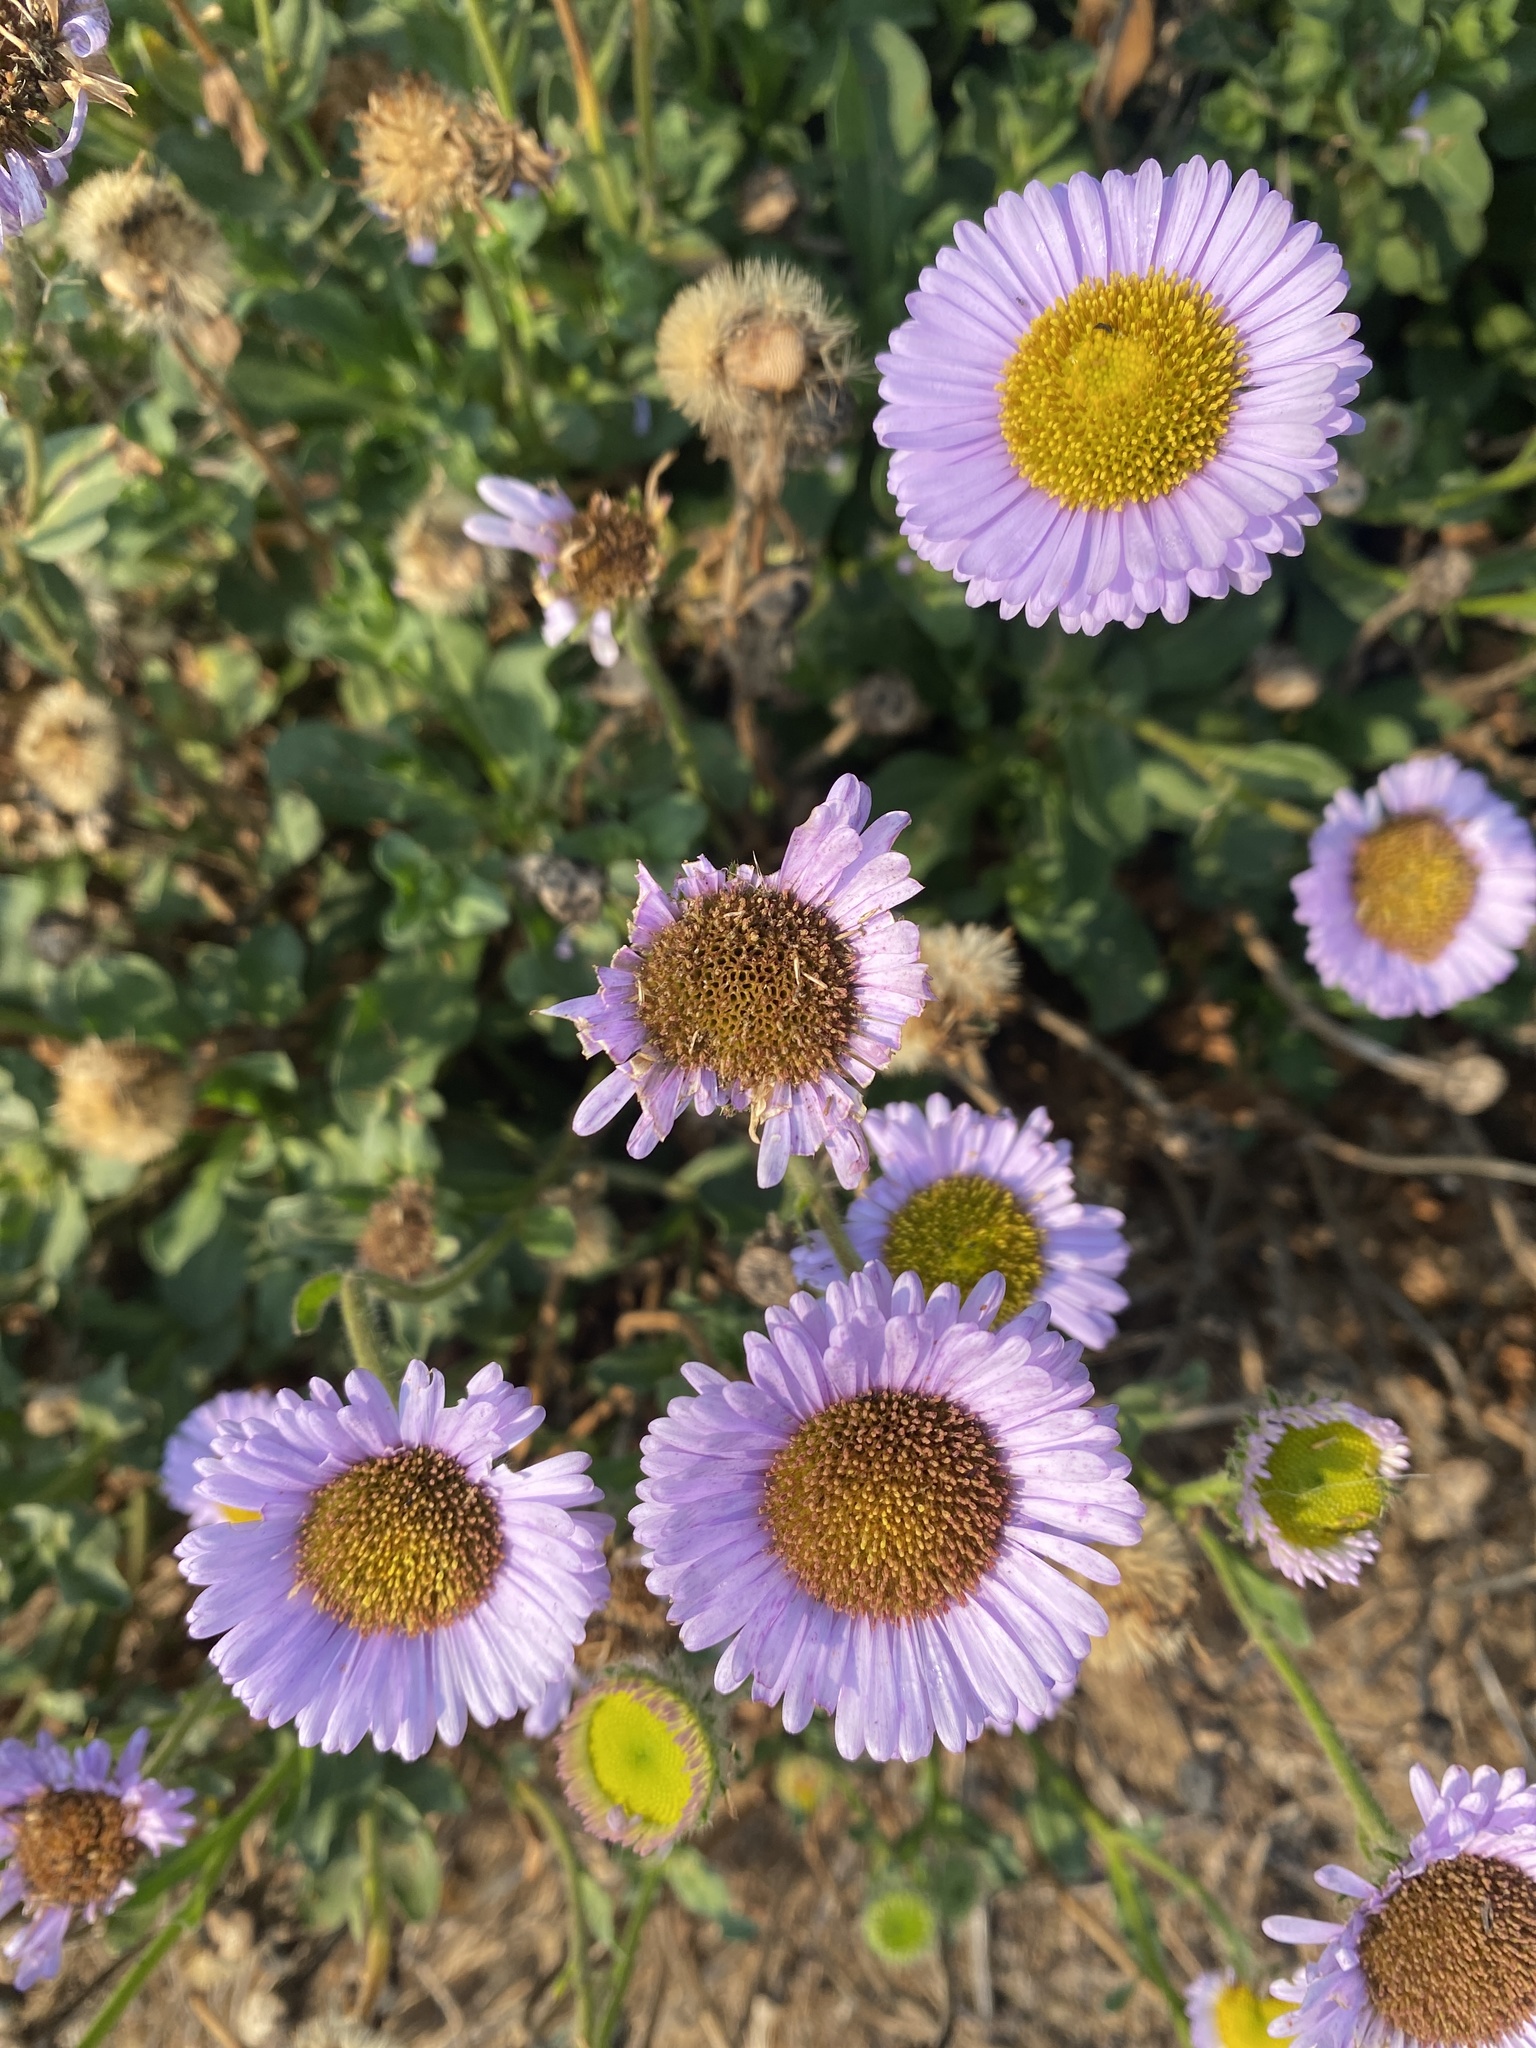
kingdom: Plantae
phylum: Tracheophyta
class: Magnoliopsida
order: Asterales
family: Asteraceae
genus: Erigeron
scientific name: Erigeron glaucus
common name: Seaside daisy
